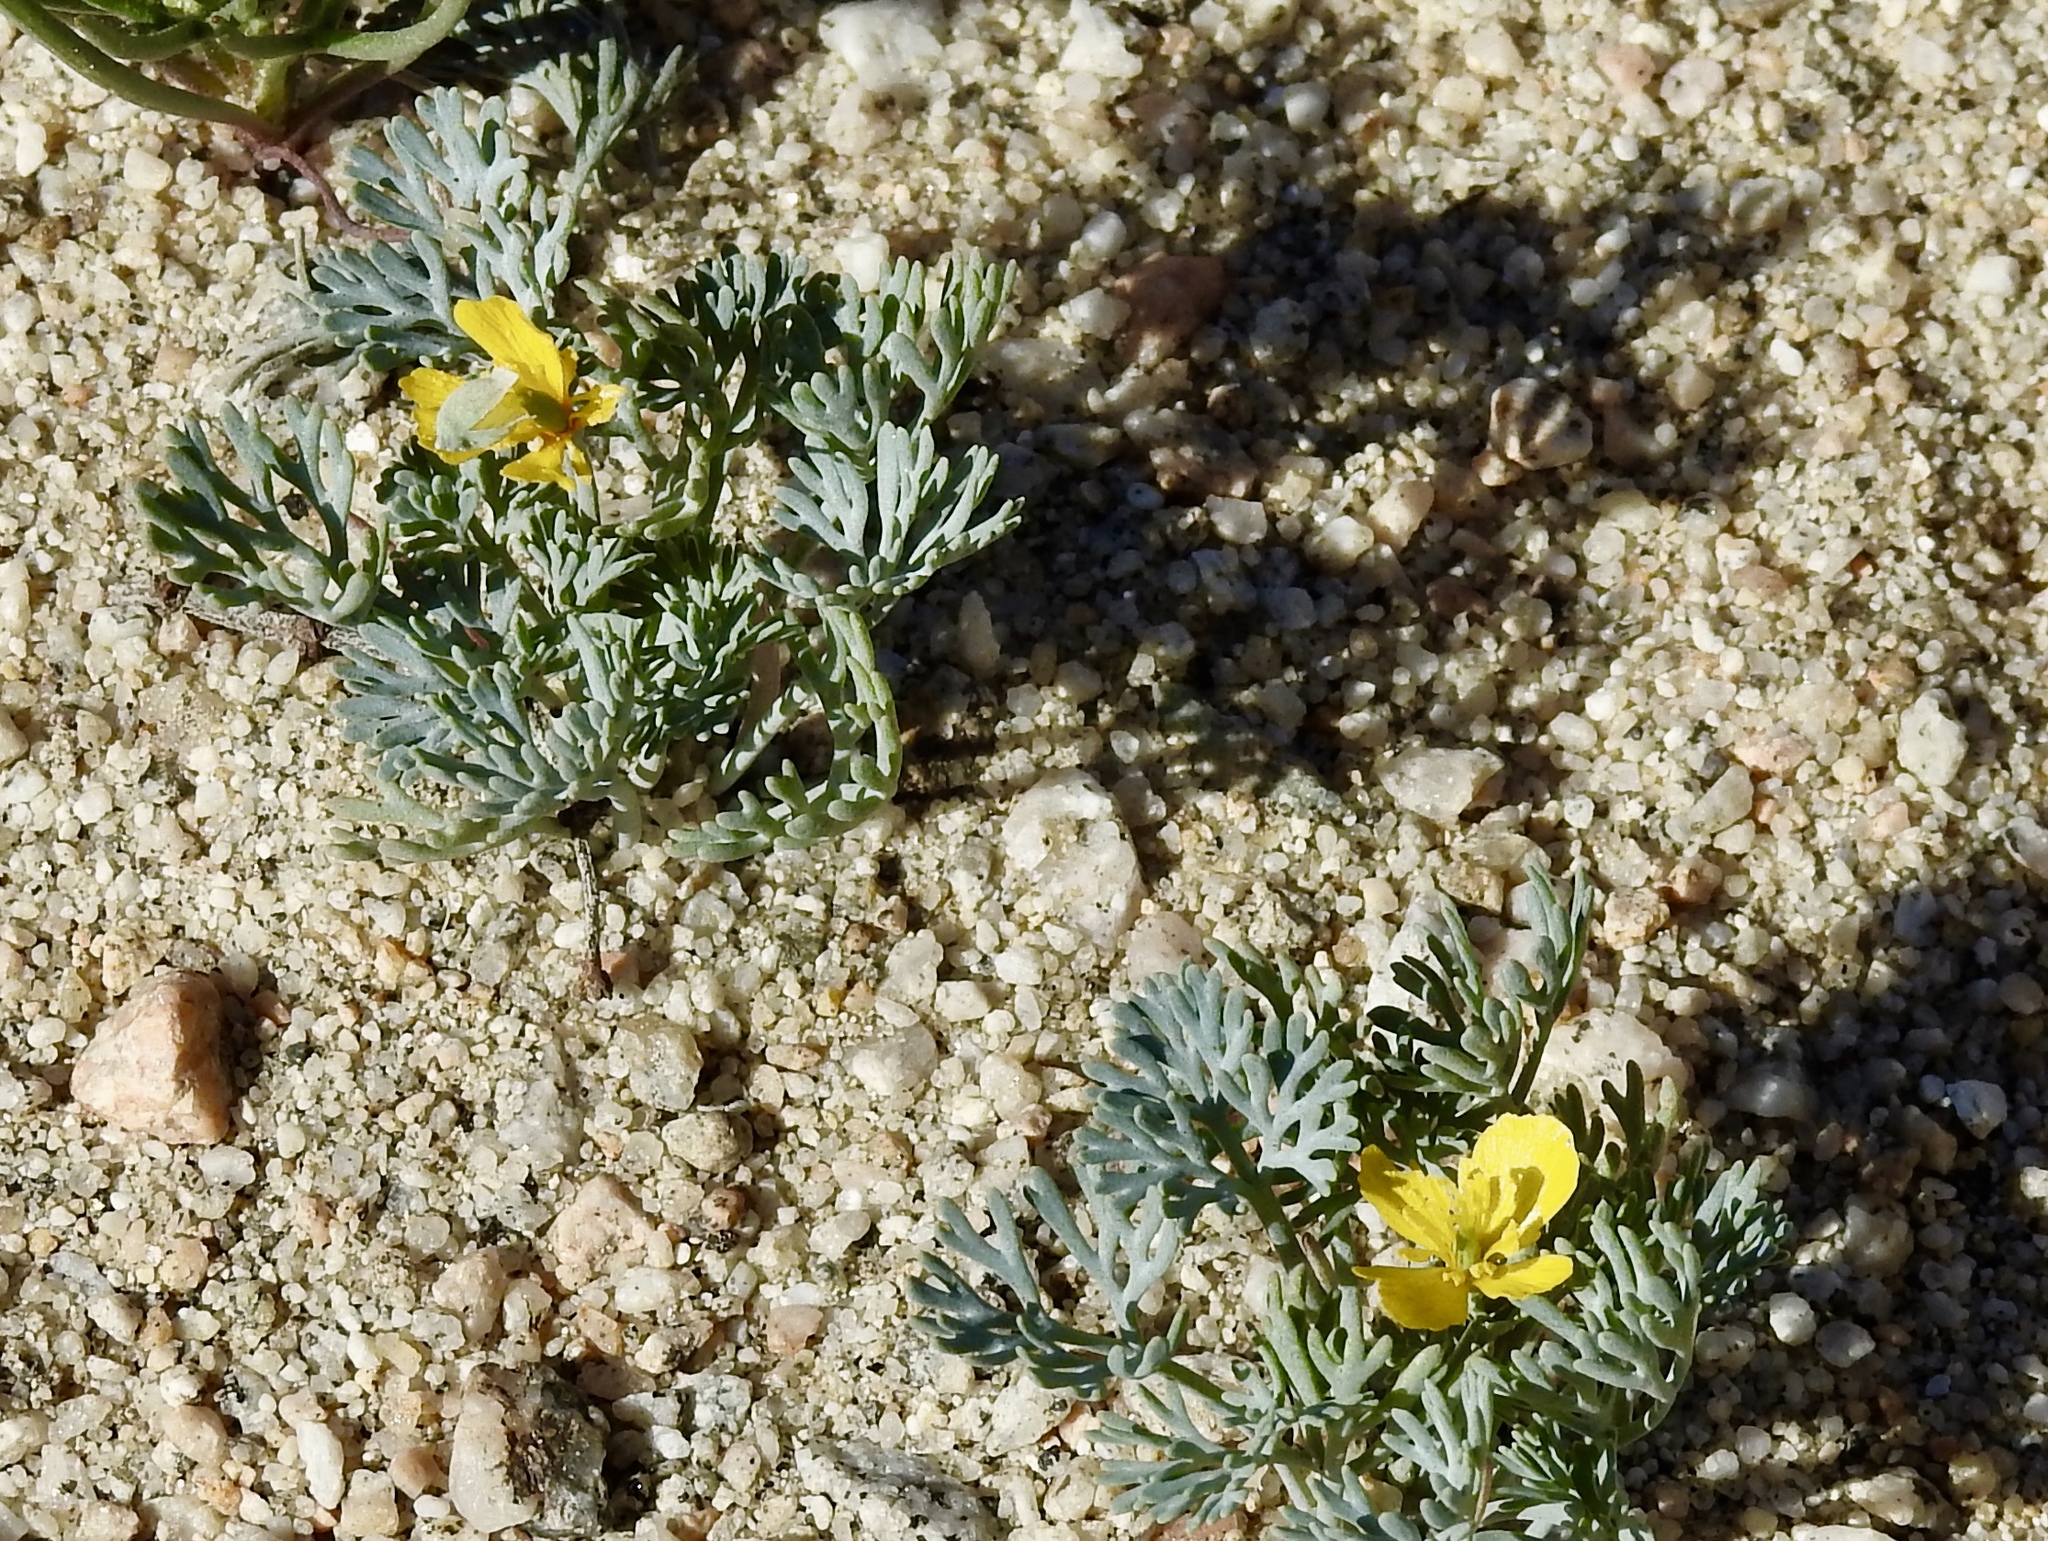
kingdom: Plantae
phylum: Tracheophyta
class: Magnoliopsida
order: Ranunculales
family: Papaveraceae
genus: Eschscholzia
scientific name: Eschscholzia minutiflora
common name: Small-flower california-poppy
